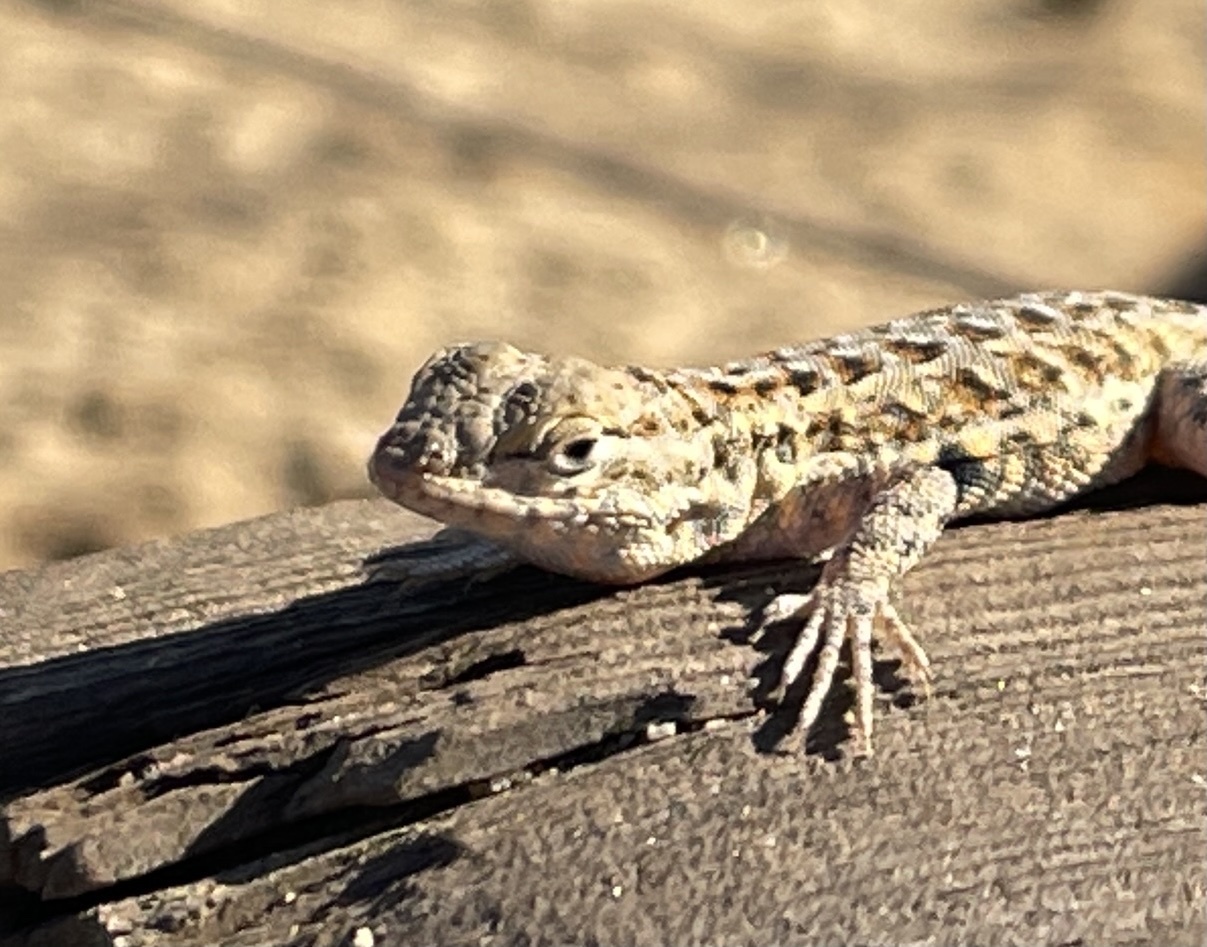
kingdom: Animalia
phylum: Chordata
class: Squamata
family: Phrynosomatidae
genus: Uta
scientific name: Uta stansburiana
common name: Side-blotched lizard
